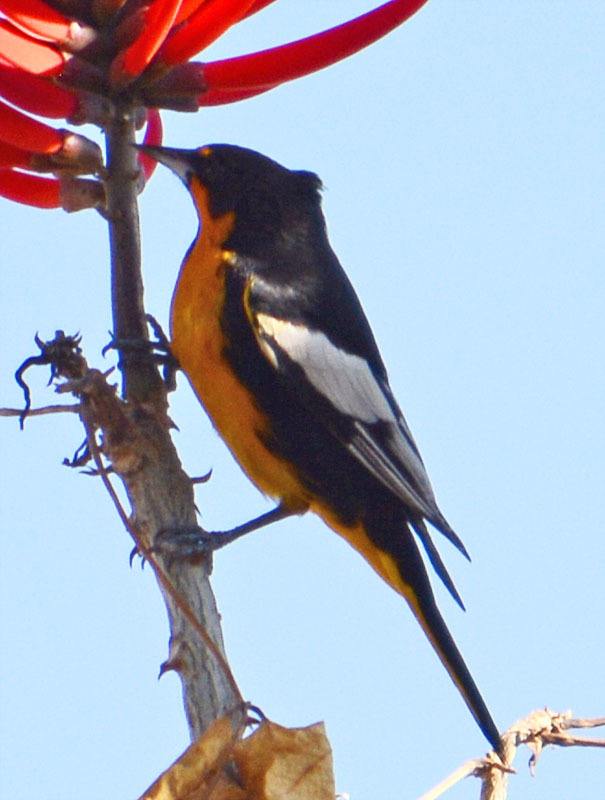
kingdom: Animalia
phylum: Chordata
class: Aves
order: Passeriformes
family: Icteridae
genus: Icterus
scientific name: Icterus abeillei
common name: Black-backed oriole
